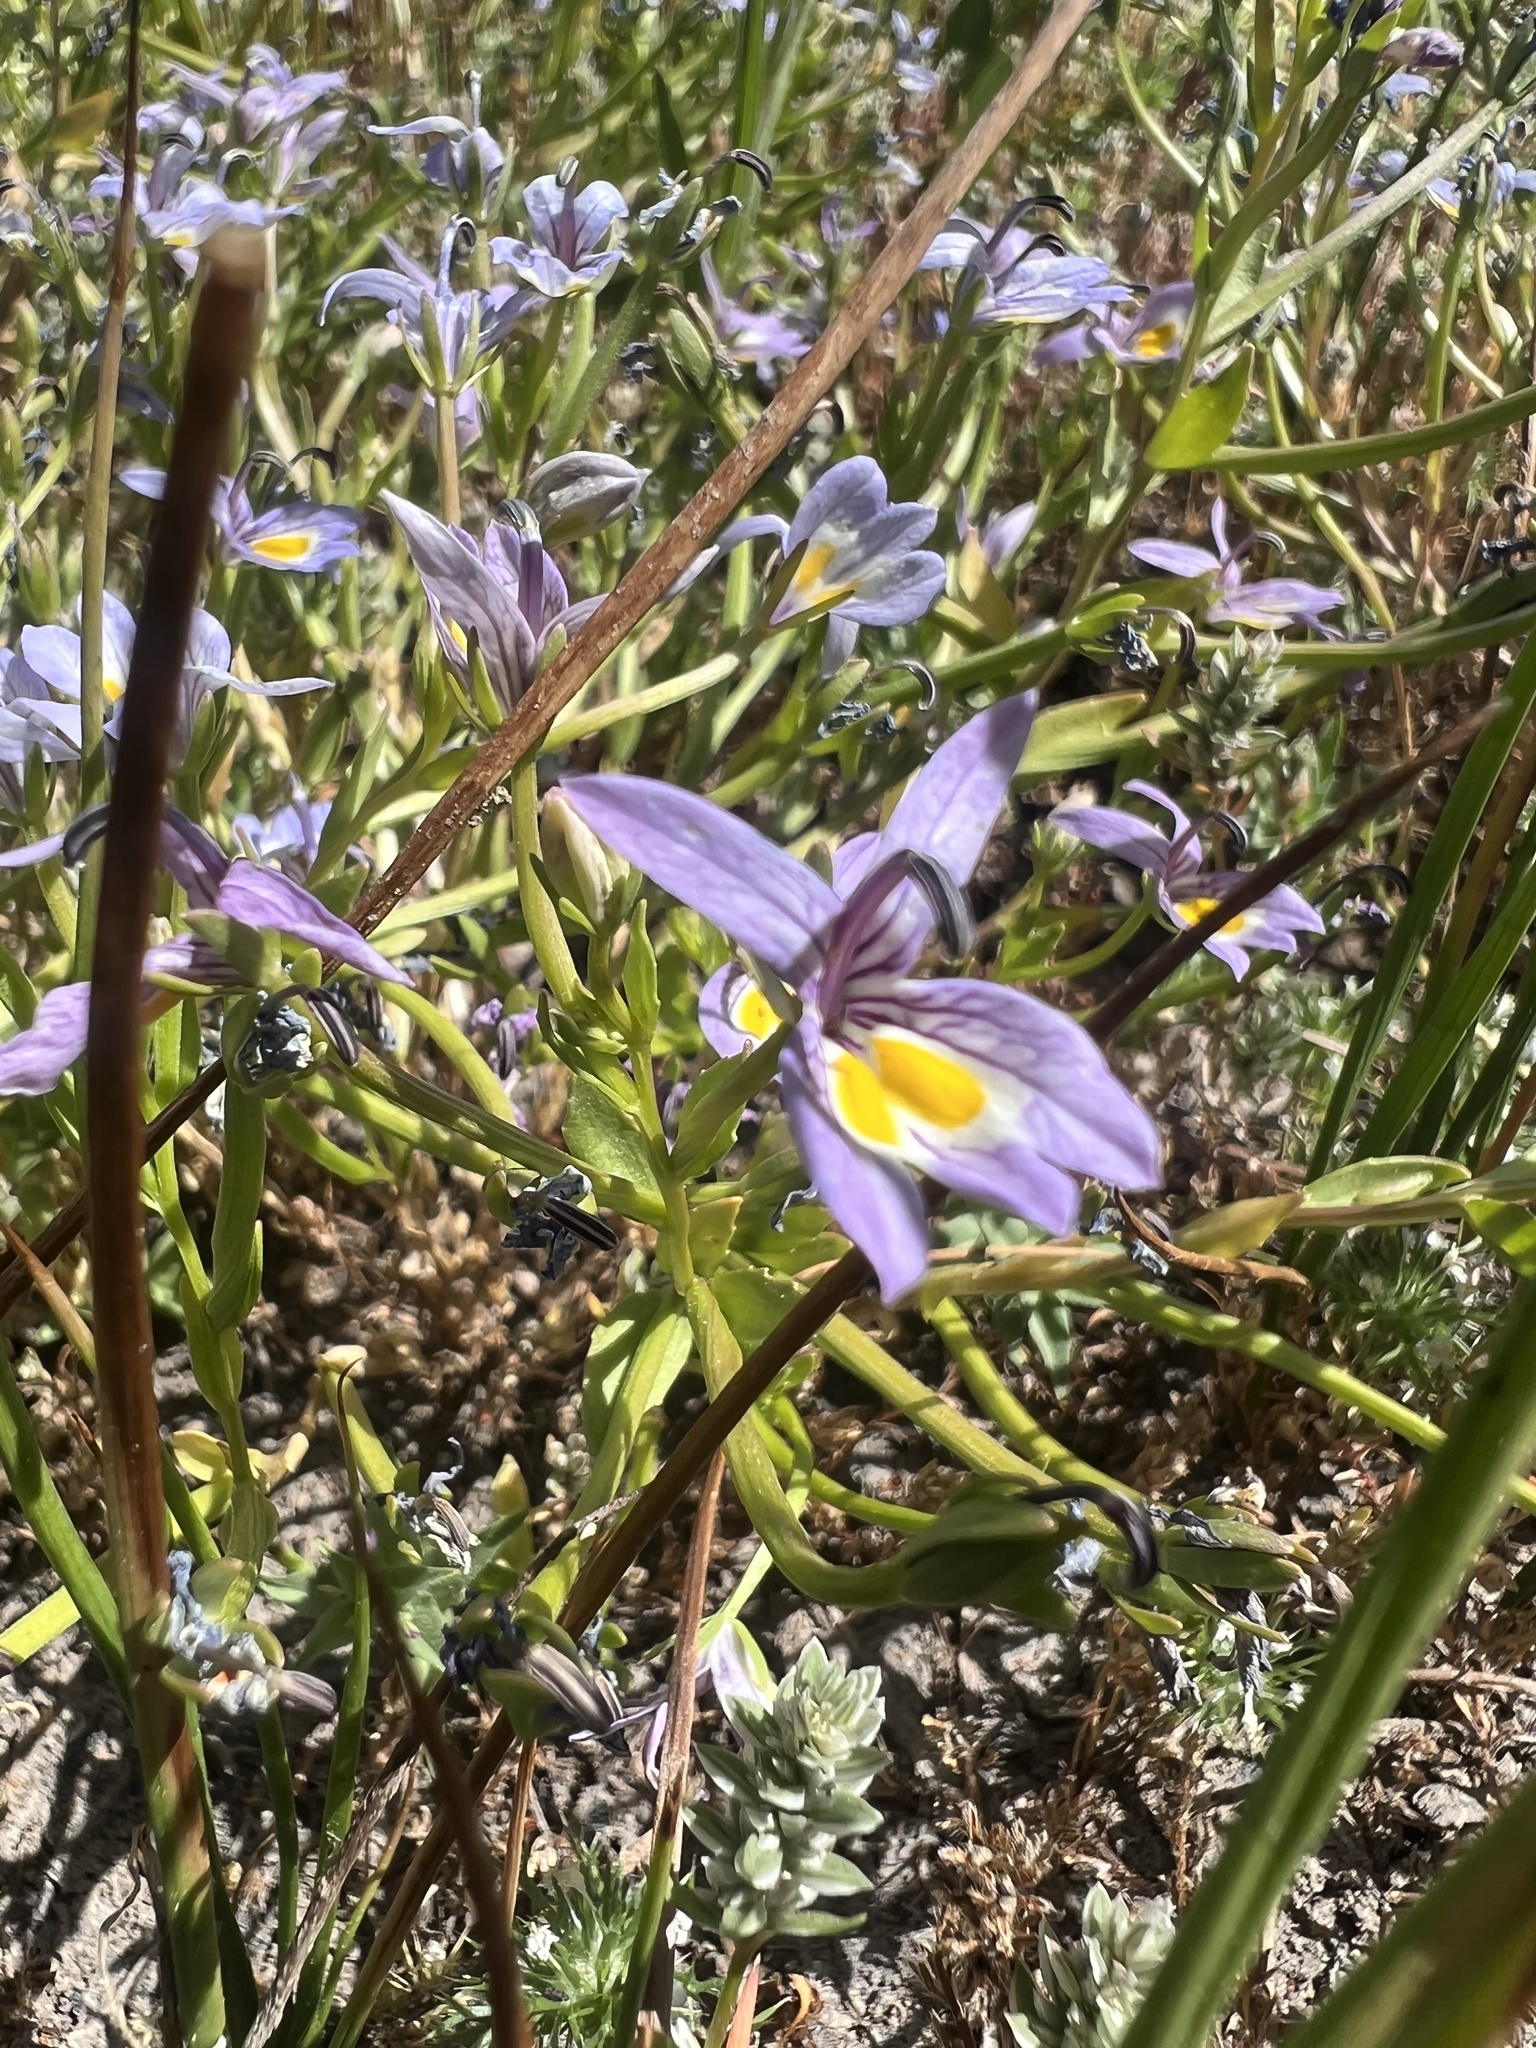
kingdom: Plantae
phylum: Tracheophyta
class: Magnoliopsida
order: Asterales
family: Campanulaceae
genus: Downingia
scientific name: Downingia bacigalupii
